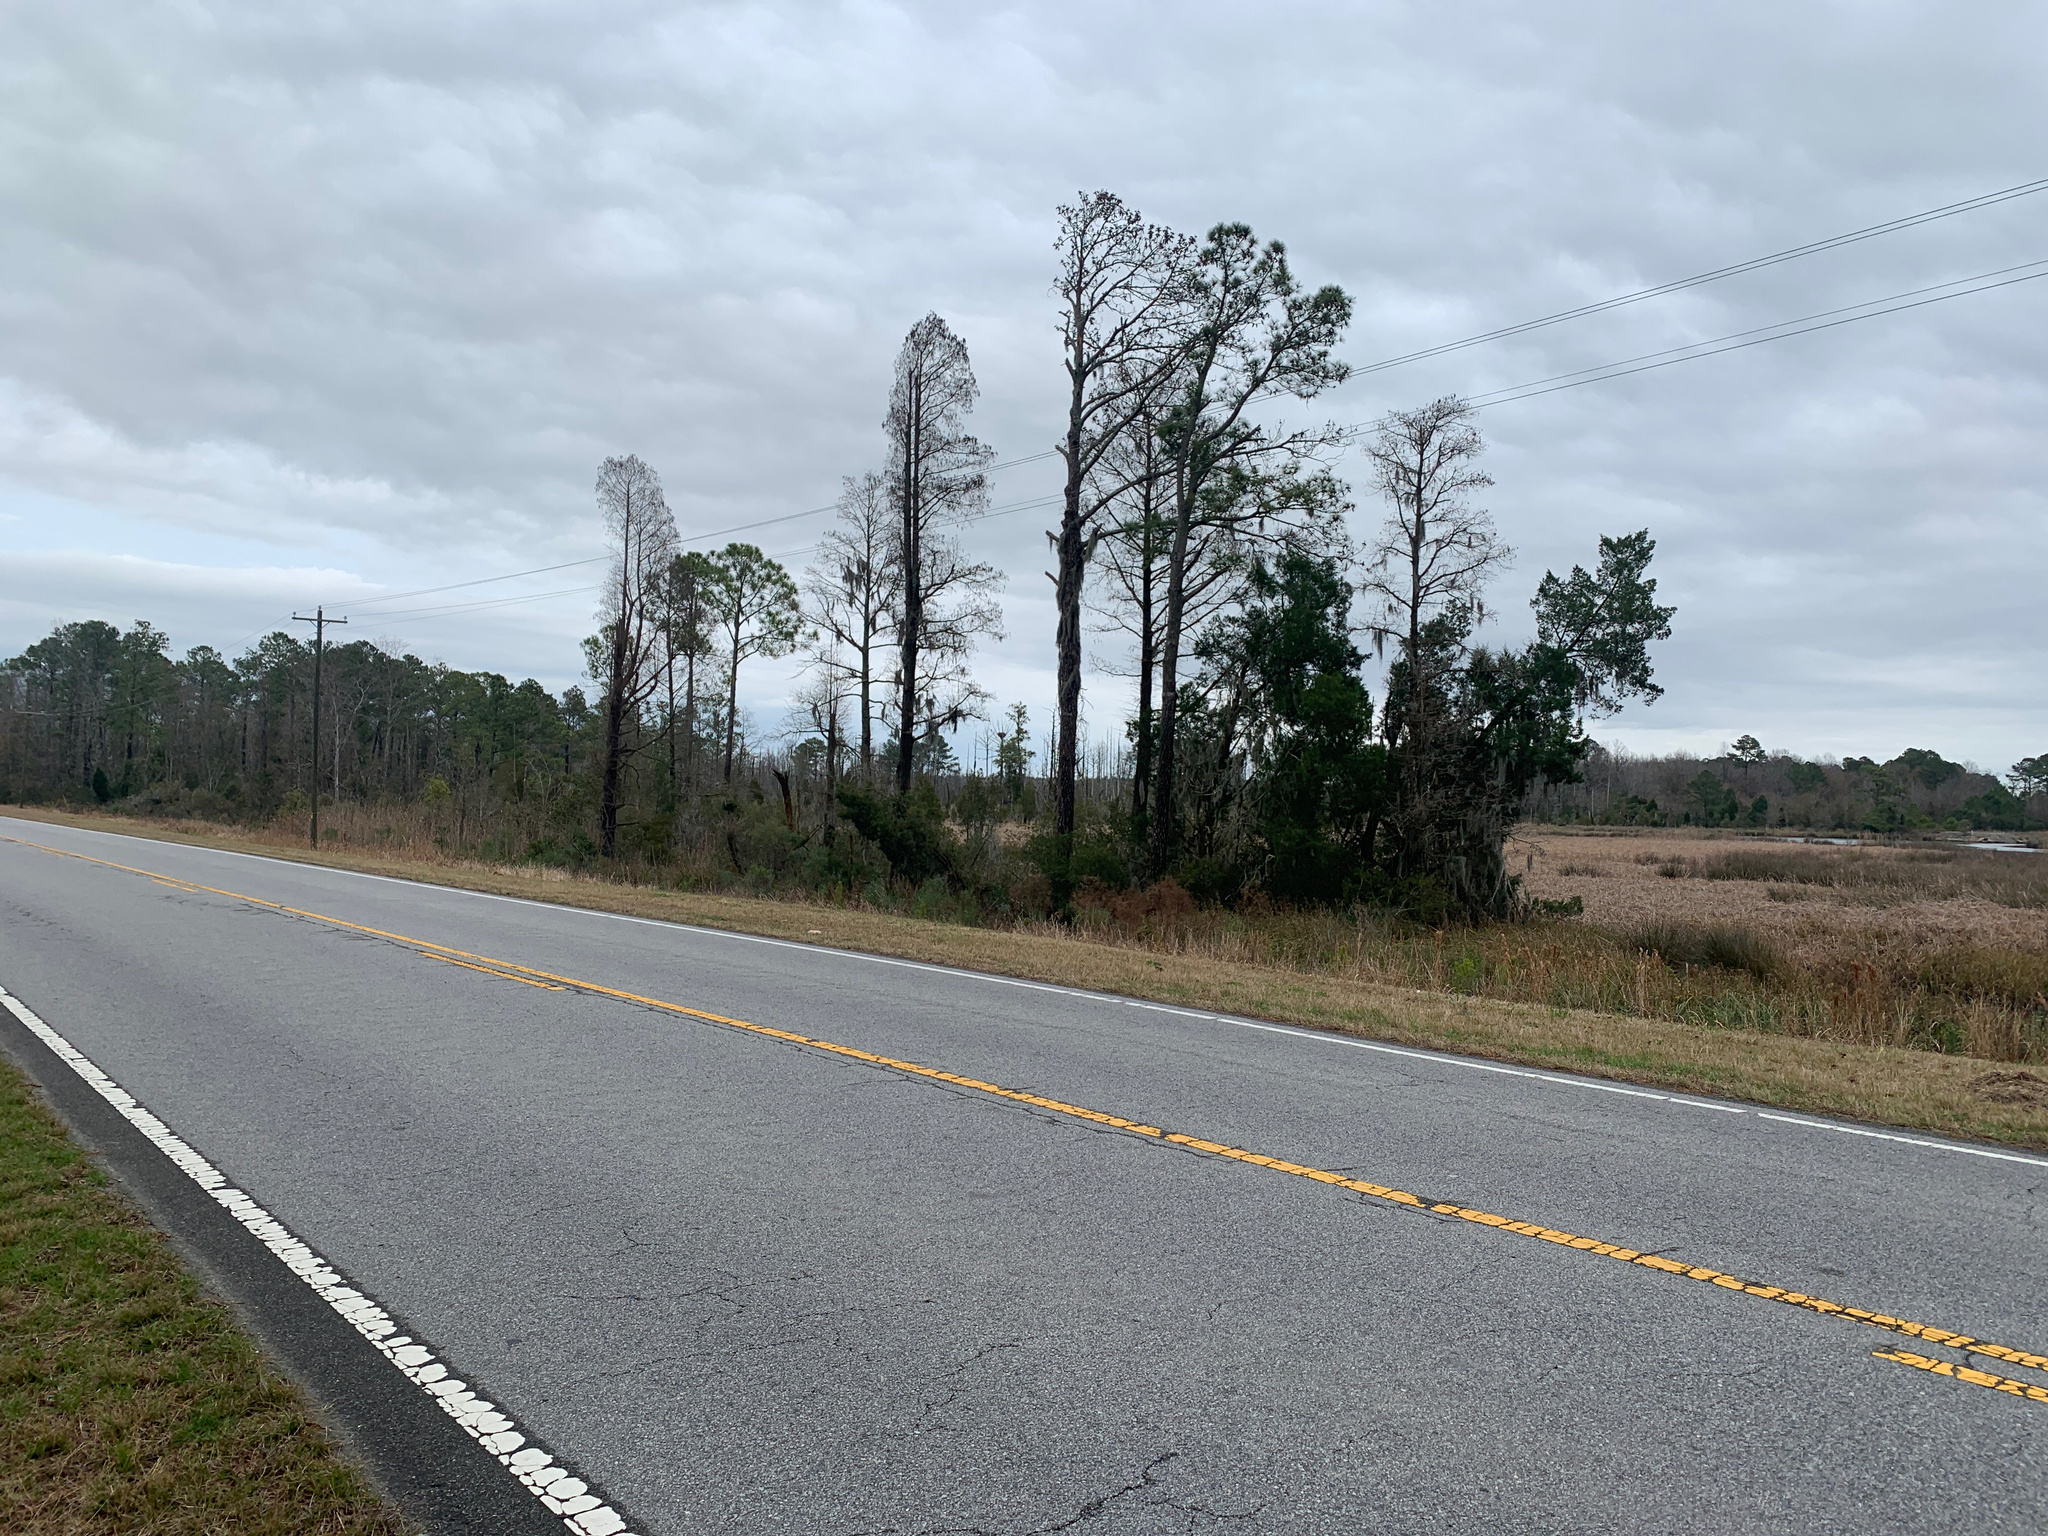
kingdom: Animalia
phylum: Chordata
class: Aves
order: Accipitriformes
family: Accipitridae
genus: Haliaeetus
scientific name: Haliaeetus leucocephalus
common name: Bald eagle
